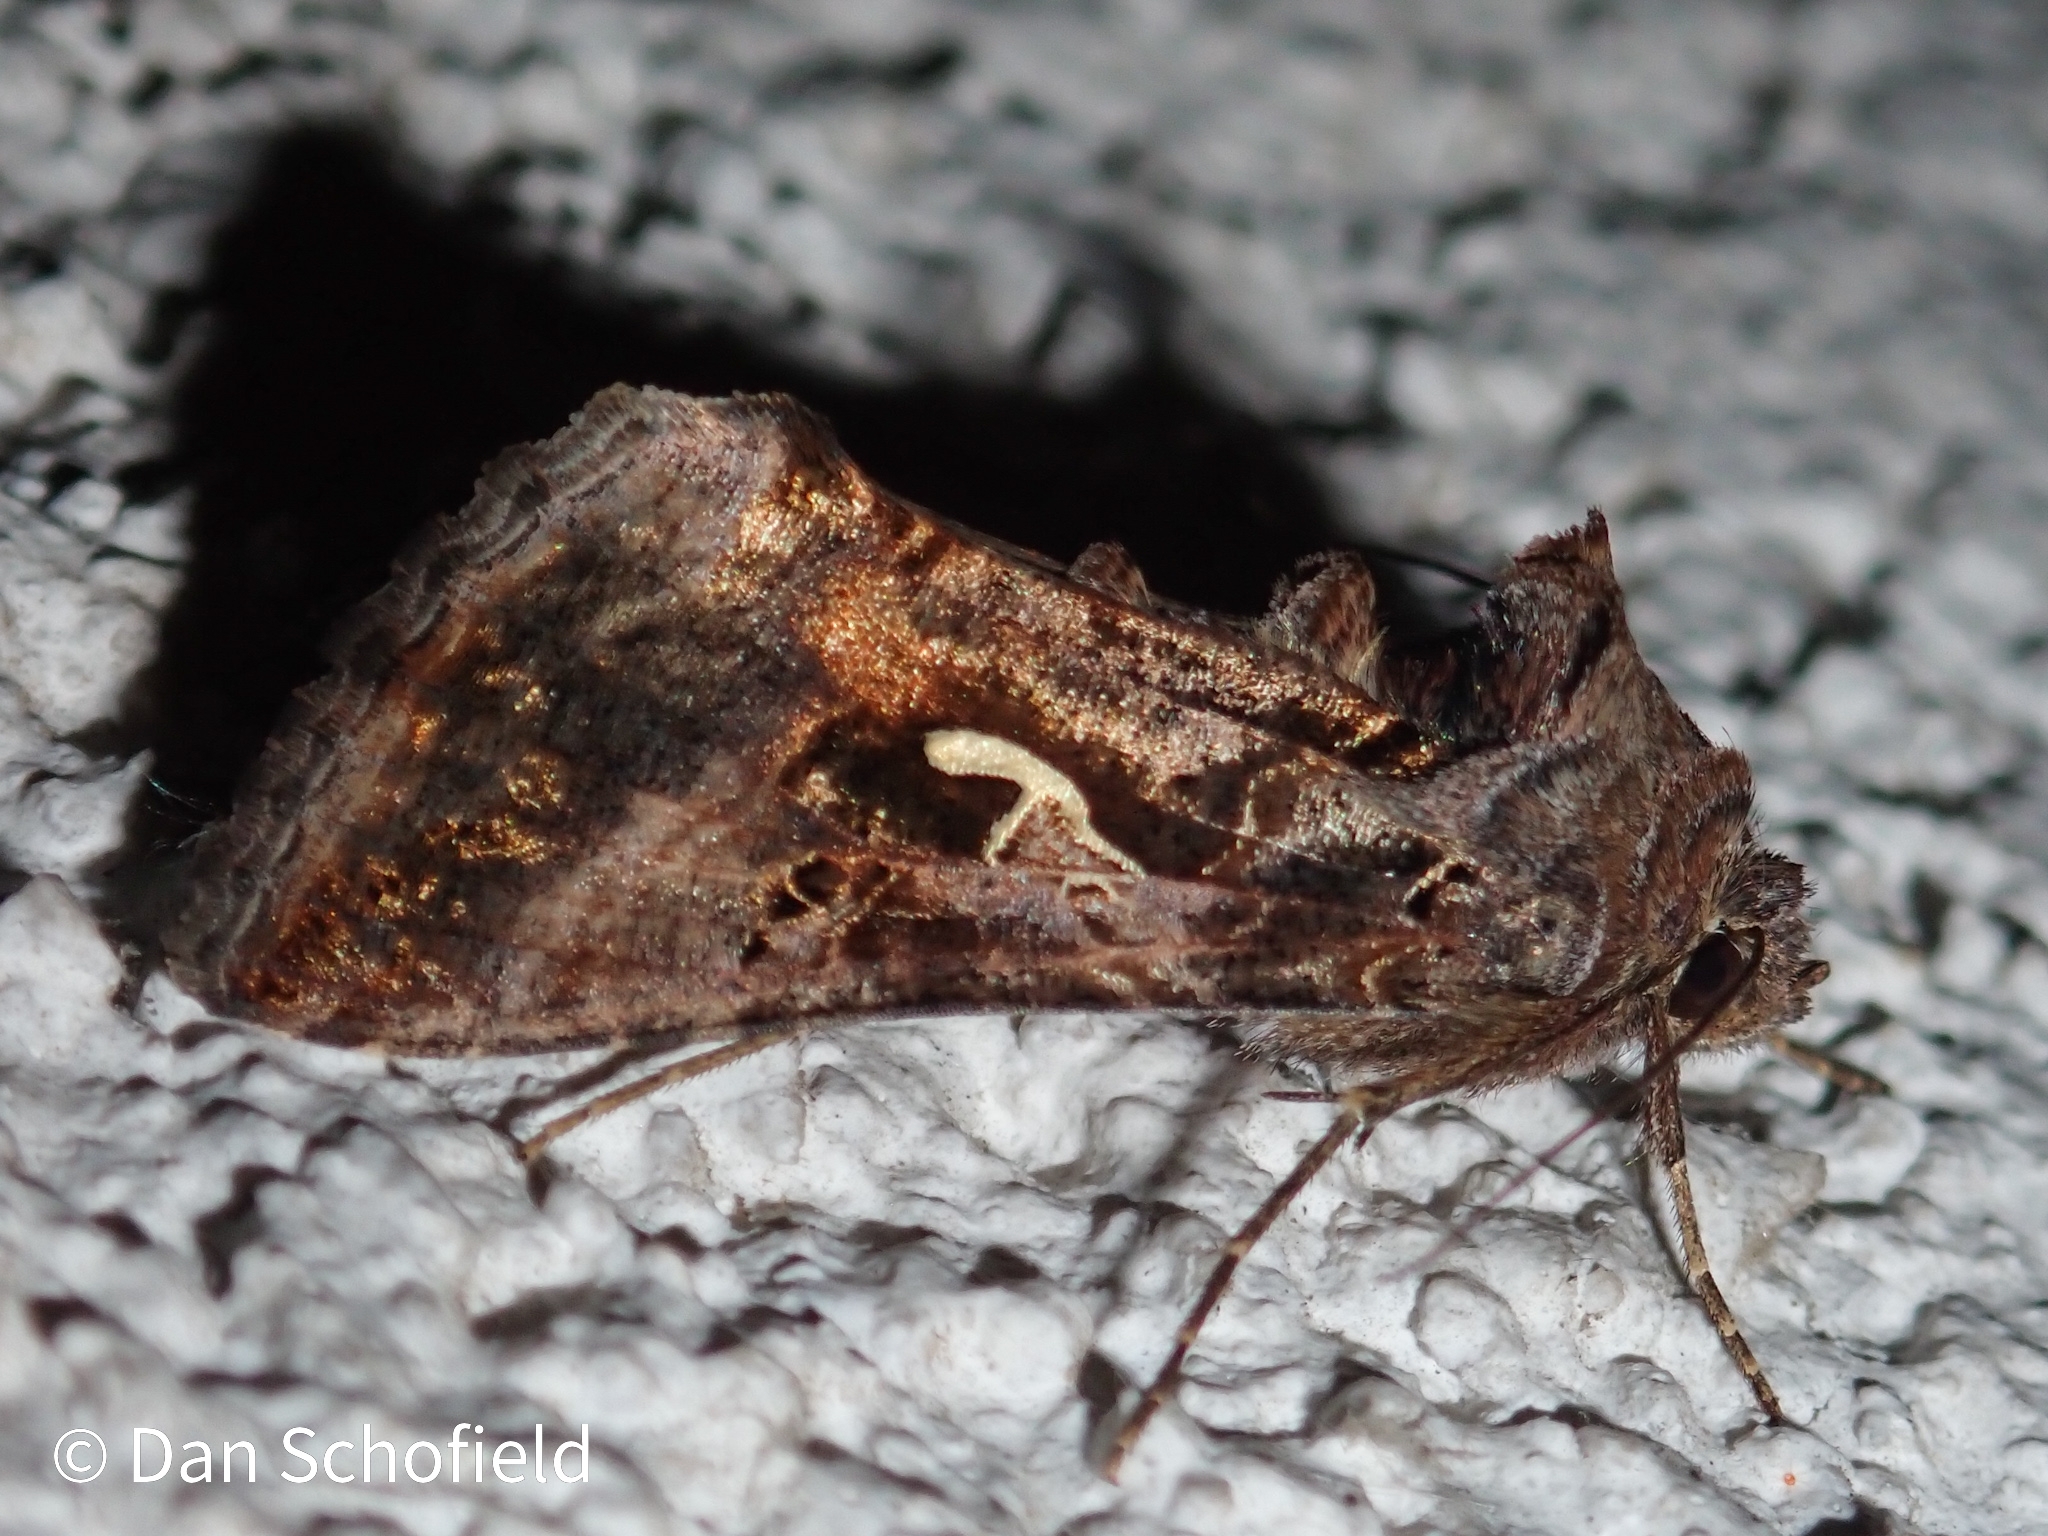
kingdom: Animalia
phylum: Arthropoda
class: Insecta
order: Lepidoptera
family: Noctuidae
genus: Autographa
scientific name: Autographa gamma
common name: Silver y
